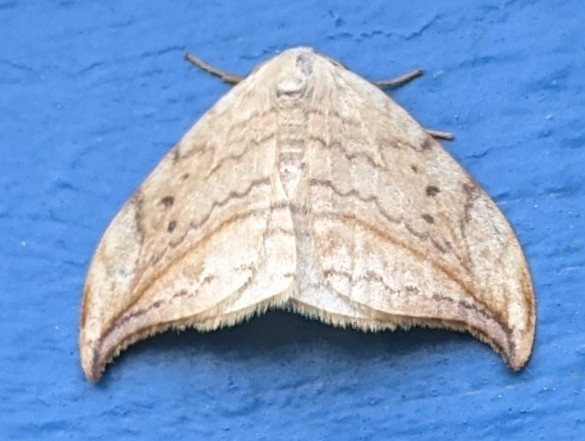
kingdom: Animalia
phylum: Arthropoda
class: Insecta
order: Lepidoptera
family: Drepanidae
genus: Drepana
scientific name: Drepana arcuata
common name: Arched hooktip moth
